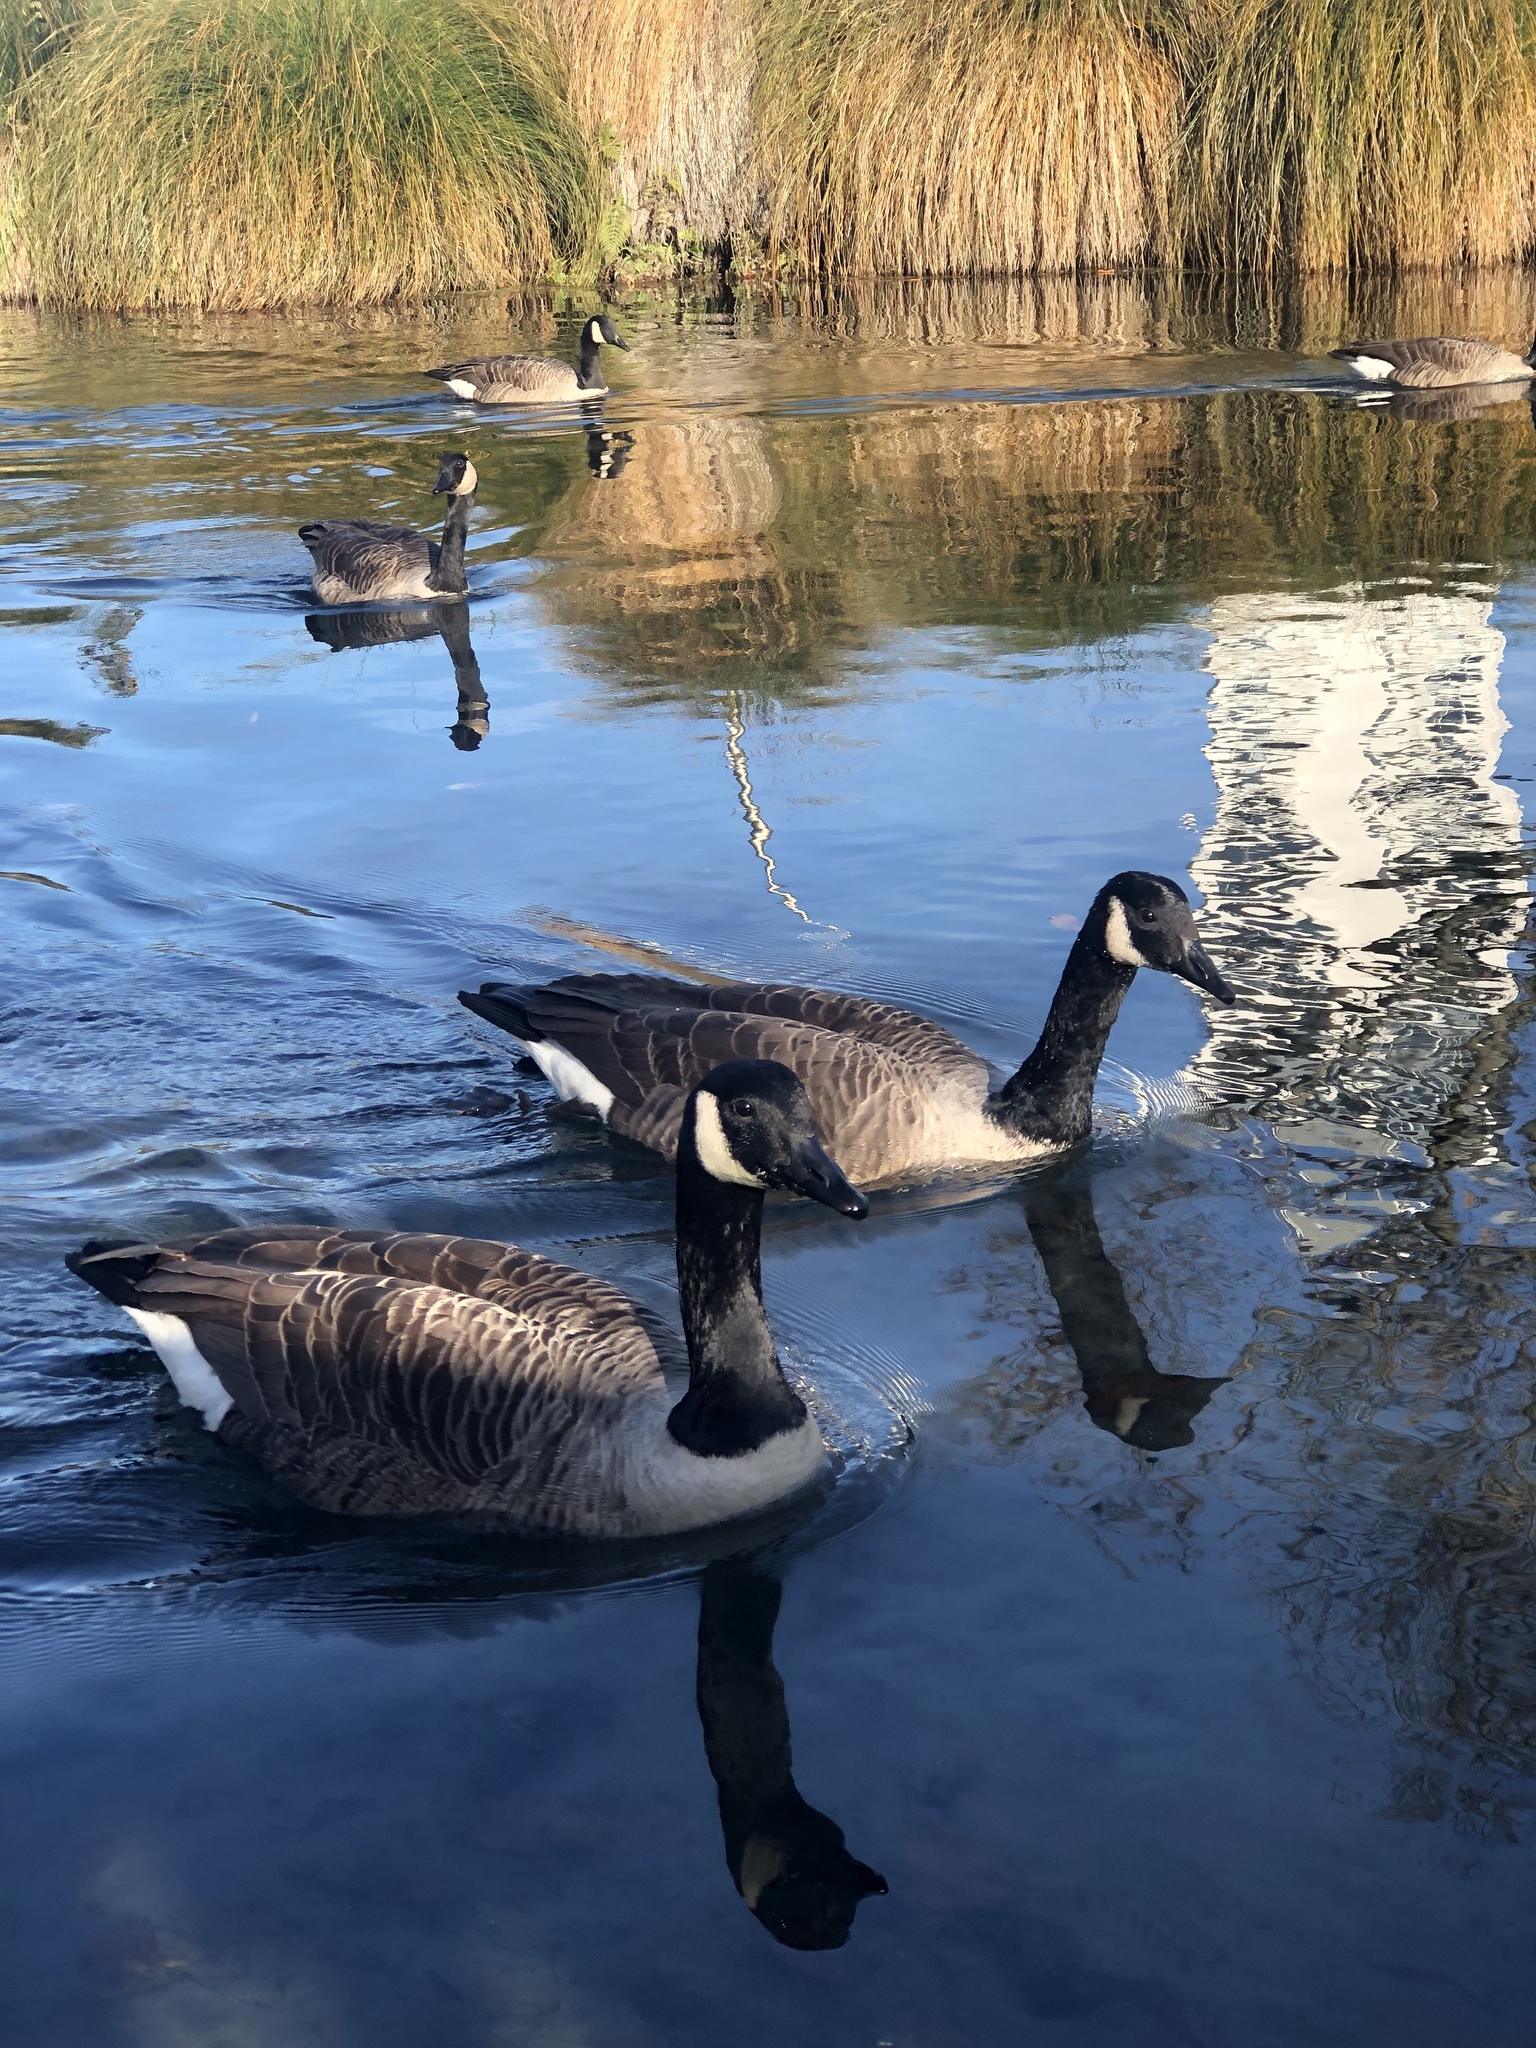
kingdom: Animalia
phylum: Chordata
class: Aves
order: Anseriformes
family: Anatidae
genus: Branta
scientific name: Branta canadensis
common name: Canada goose
